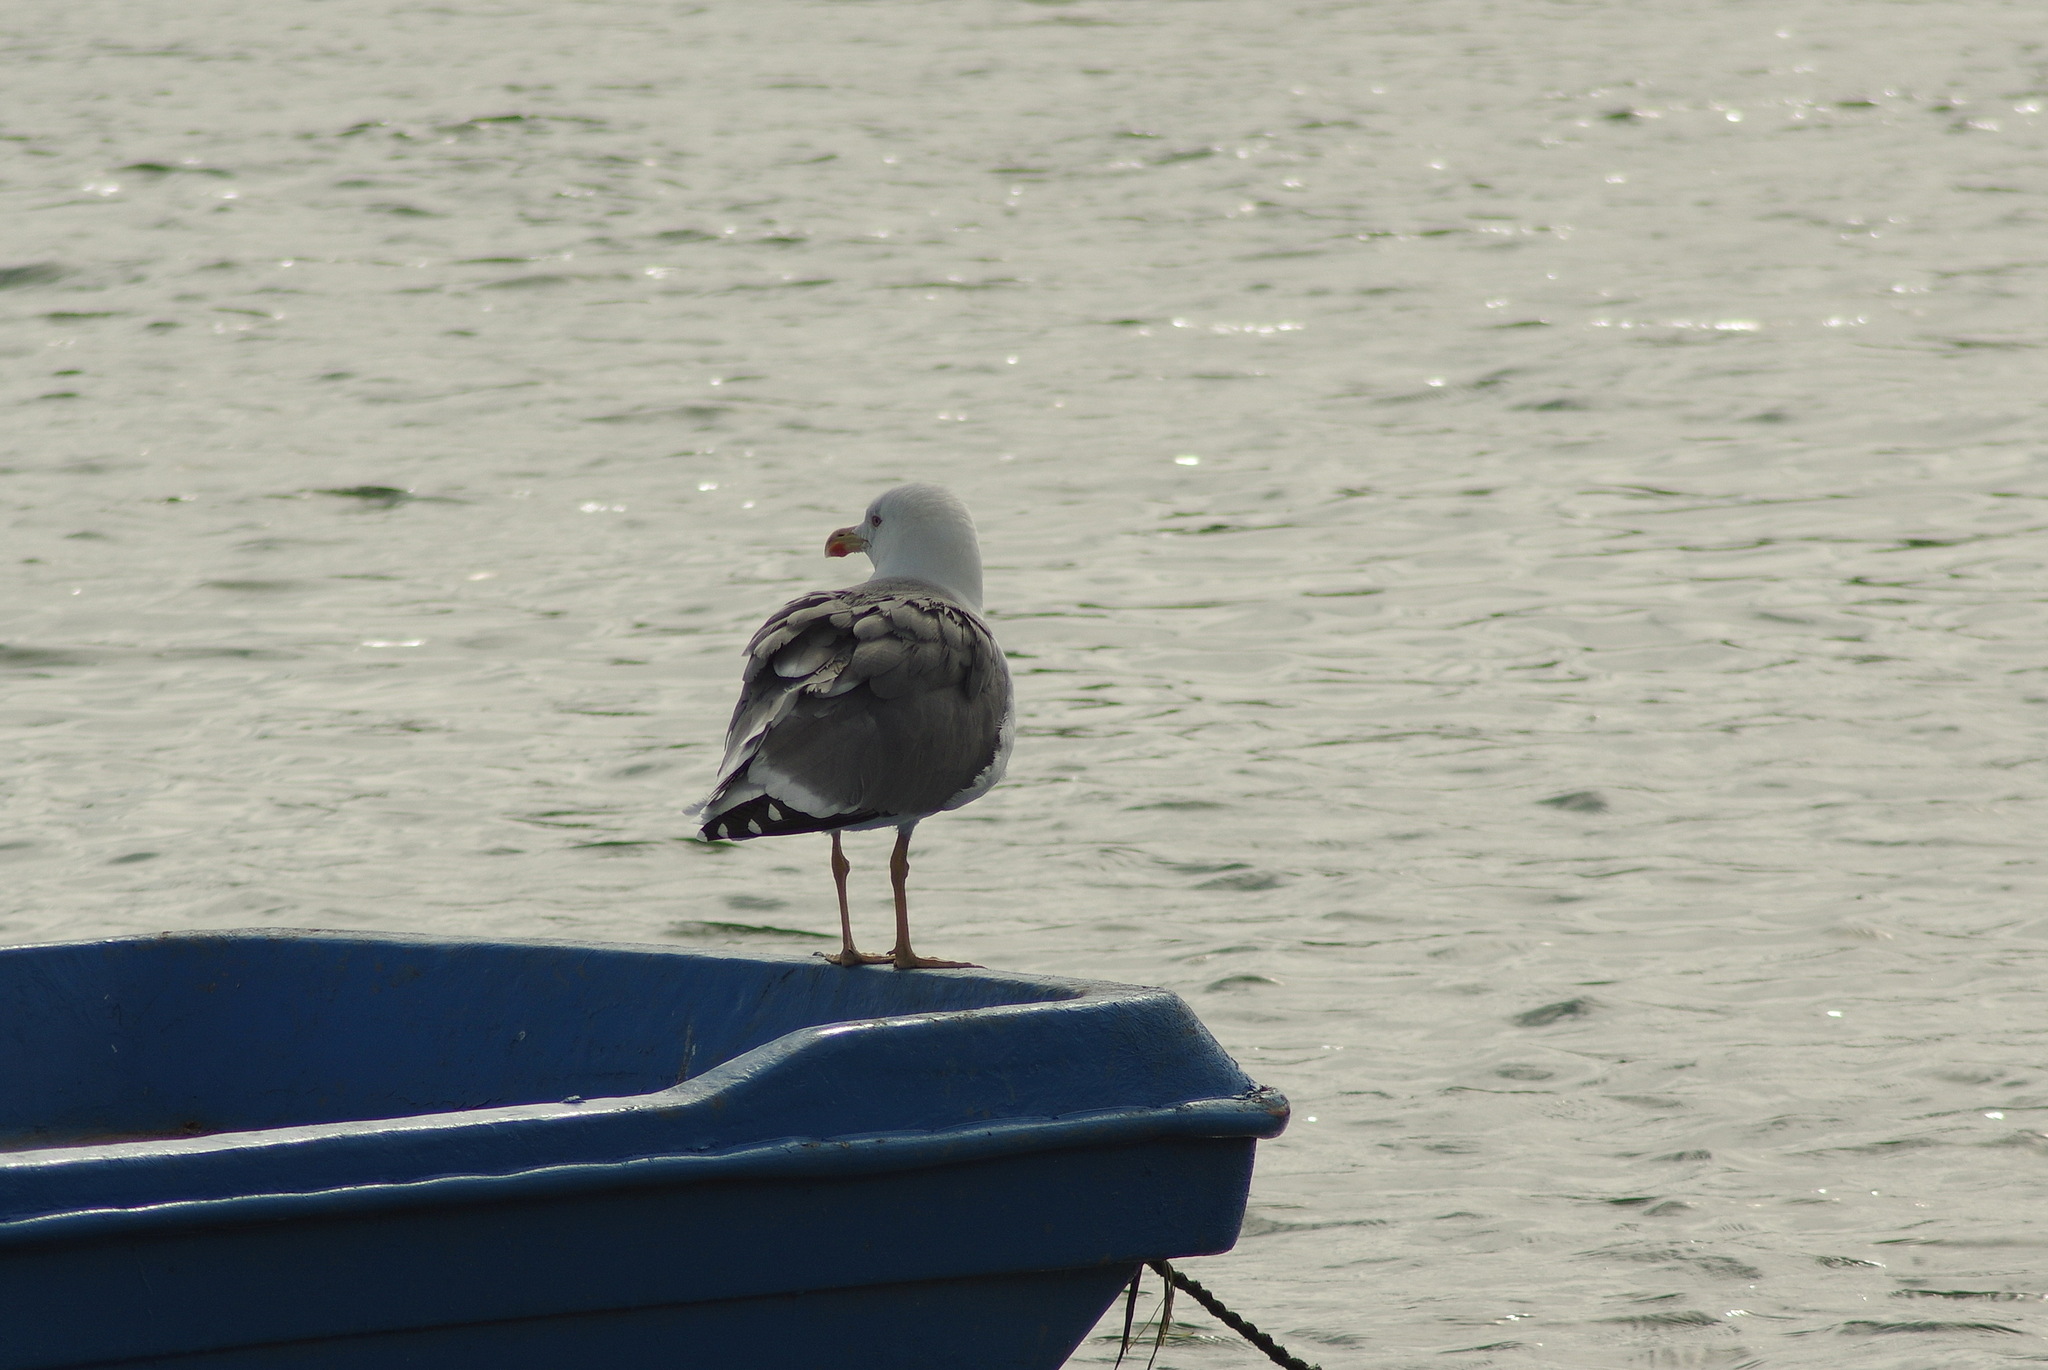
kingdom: Animalia
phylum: Chordata
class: Aves
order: Charadriiformes
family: Laridae
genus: Larus
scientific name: Larus michahellis
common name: Yellow-legged gull
